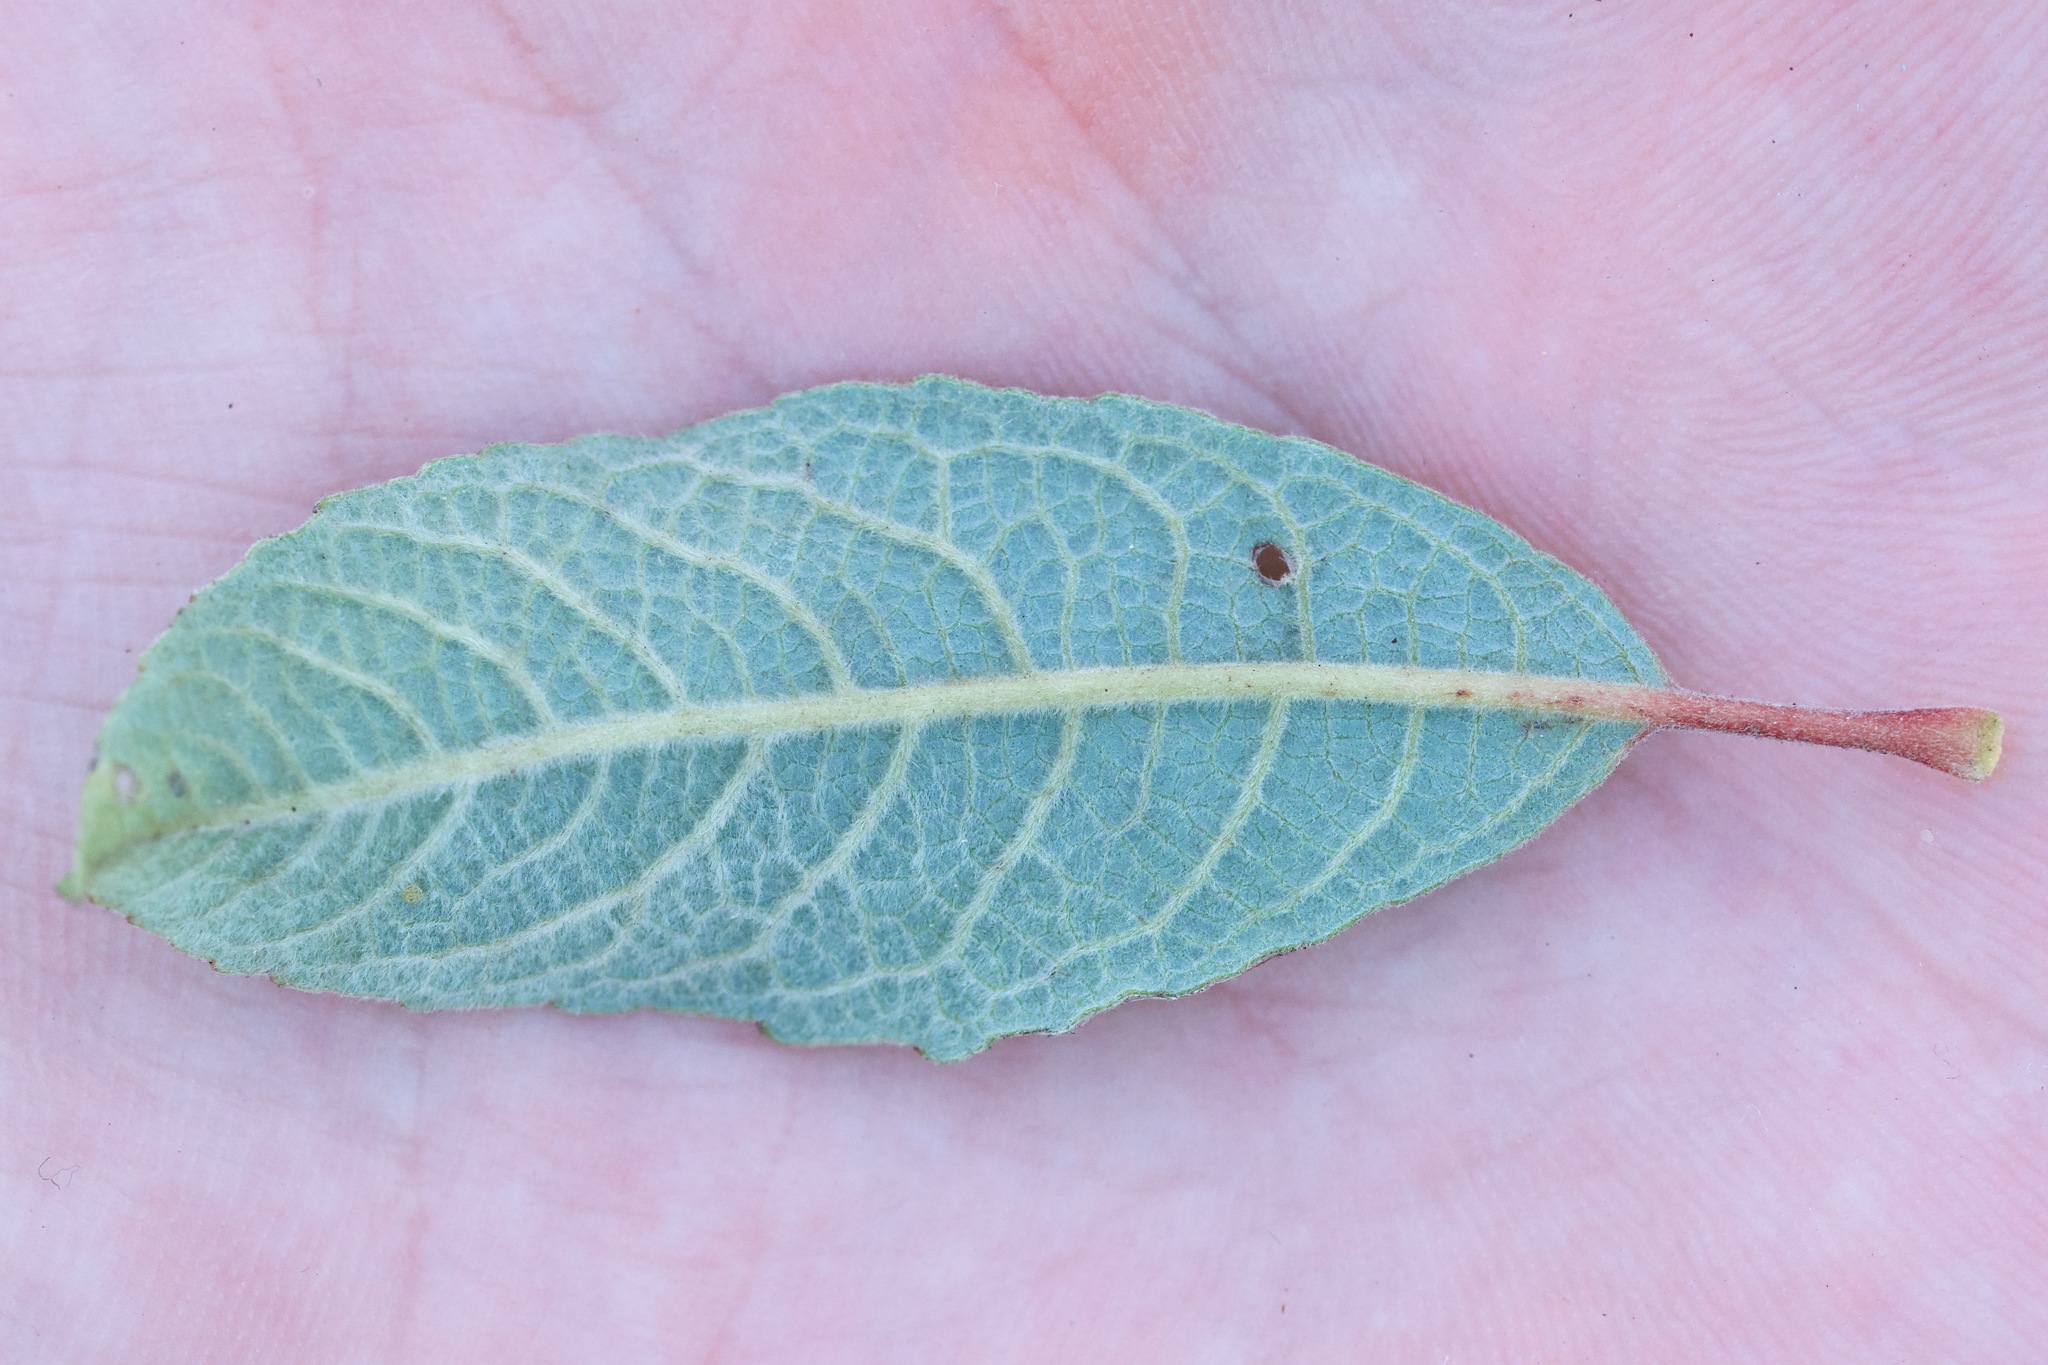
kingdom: Plantae
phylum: Tracheophyta
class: Magnoliopsida
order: Malpighiales
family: Salicaceae
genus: Salix
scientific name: Salix bebbiana
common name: Bebb's willow
